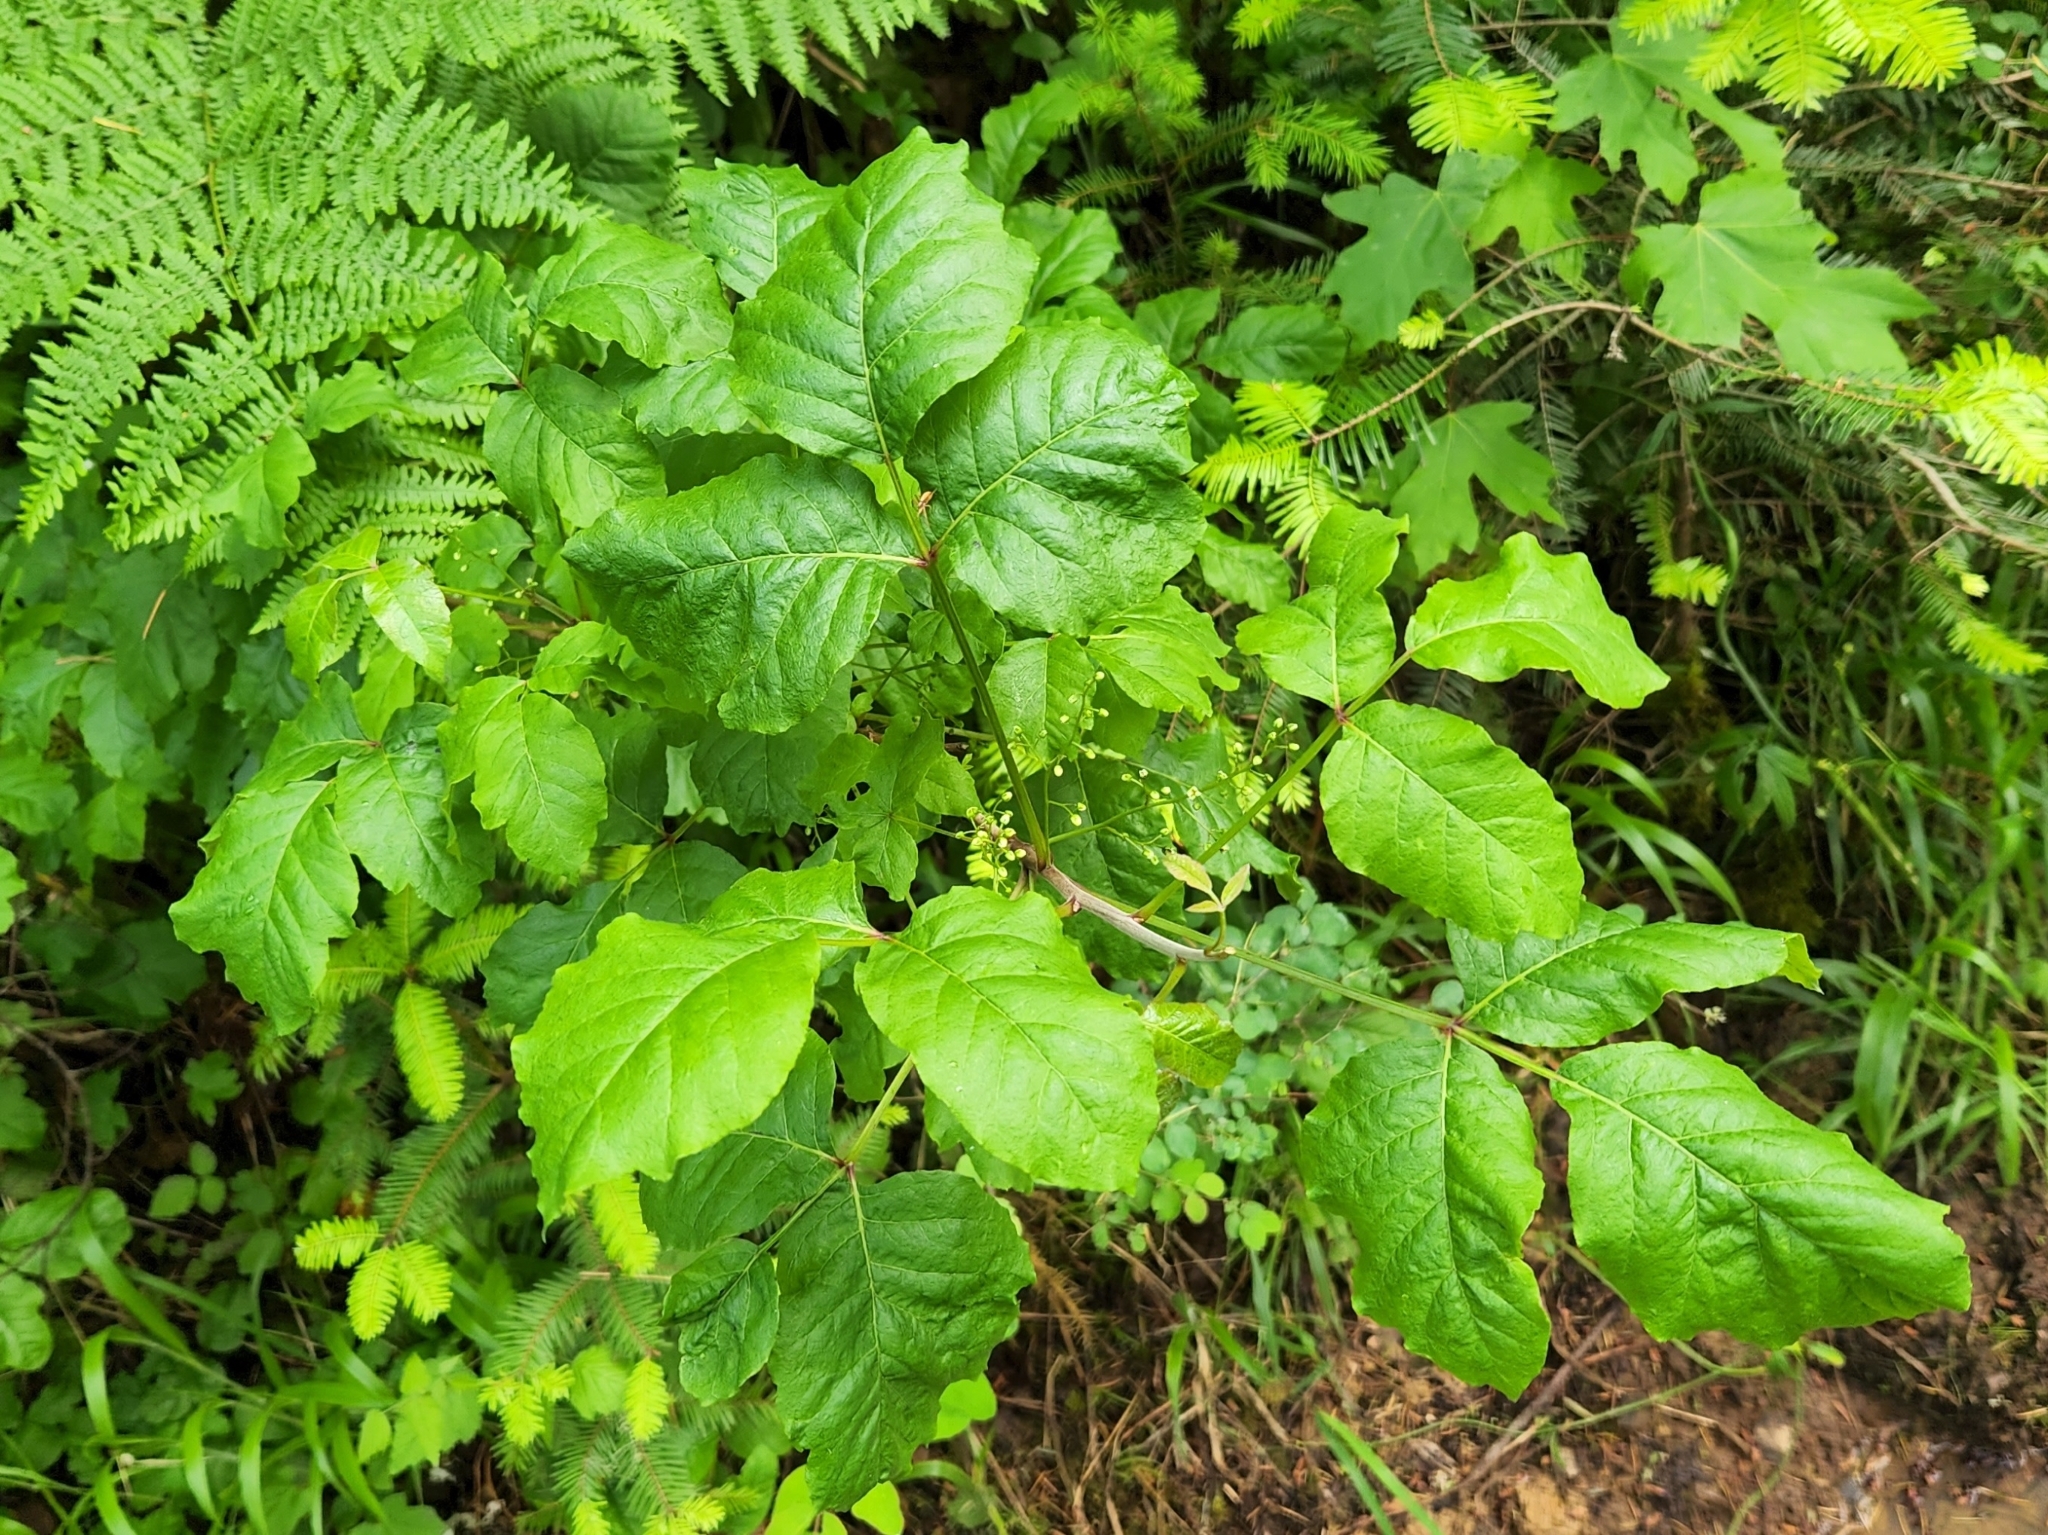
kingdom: Plantae
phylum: Tracheophyta
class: Magnoliopsida
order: Sapindales
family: Anacardiaceae
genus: Toxicodendron
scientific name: Toxicodendron diversilobum
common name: Pacific poison-oak
